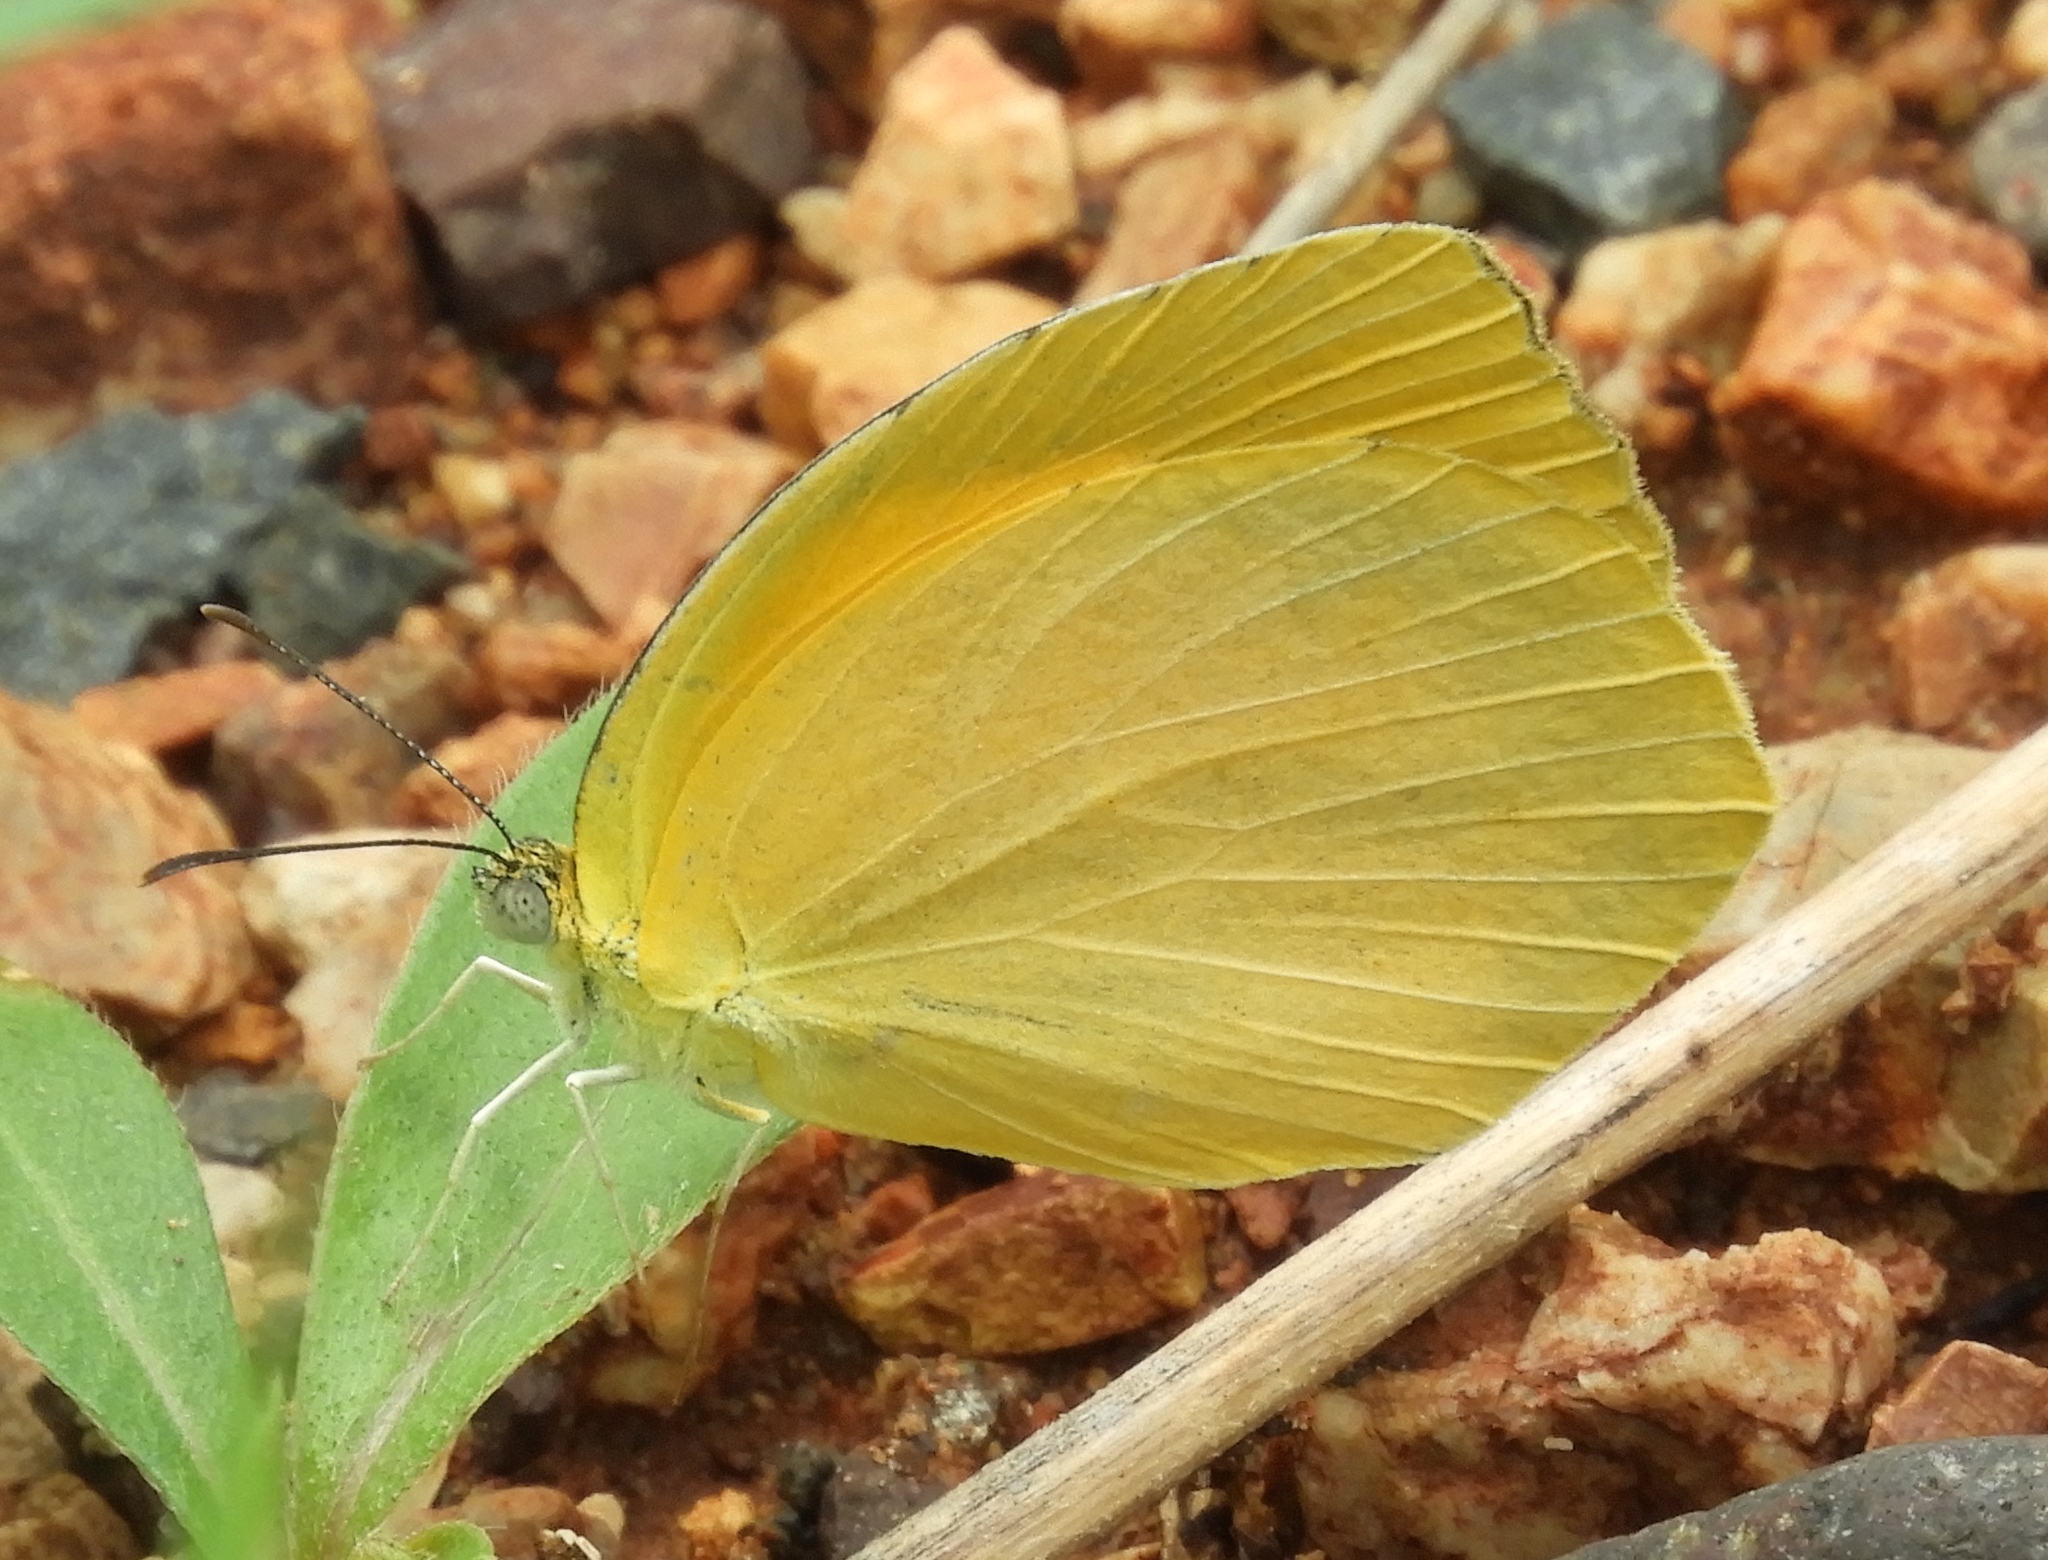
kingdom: Animalia
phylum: Arthropoda
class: Insecta
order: Lepidoptera
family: Pieridae
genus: Pyrisitia
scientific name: Pyrisitia proterpia
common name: Tailed orange
